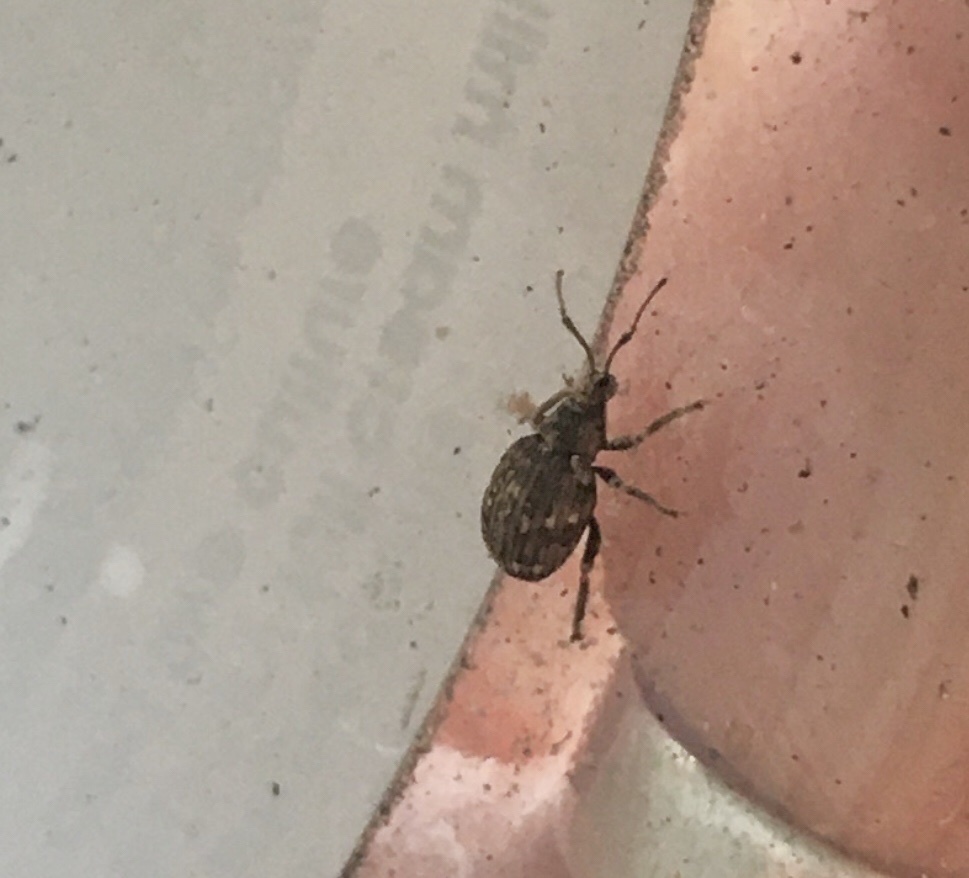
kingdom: Animalia
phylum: Arthropoda
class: Insecta
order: Coleoptera
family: Curculionidae
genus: Ellimenistes
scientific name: Ellimenistes laesicollis
